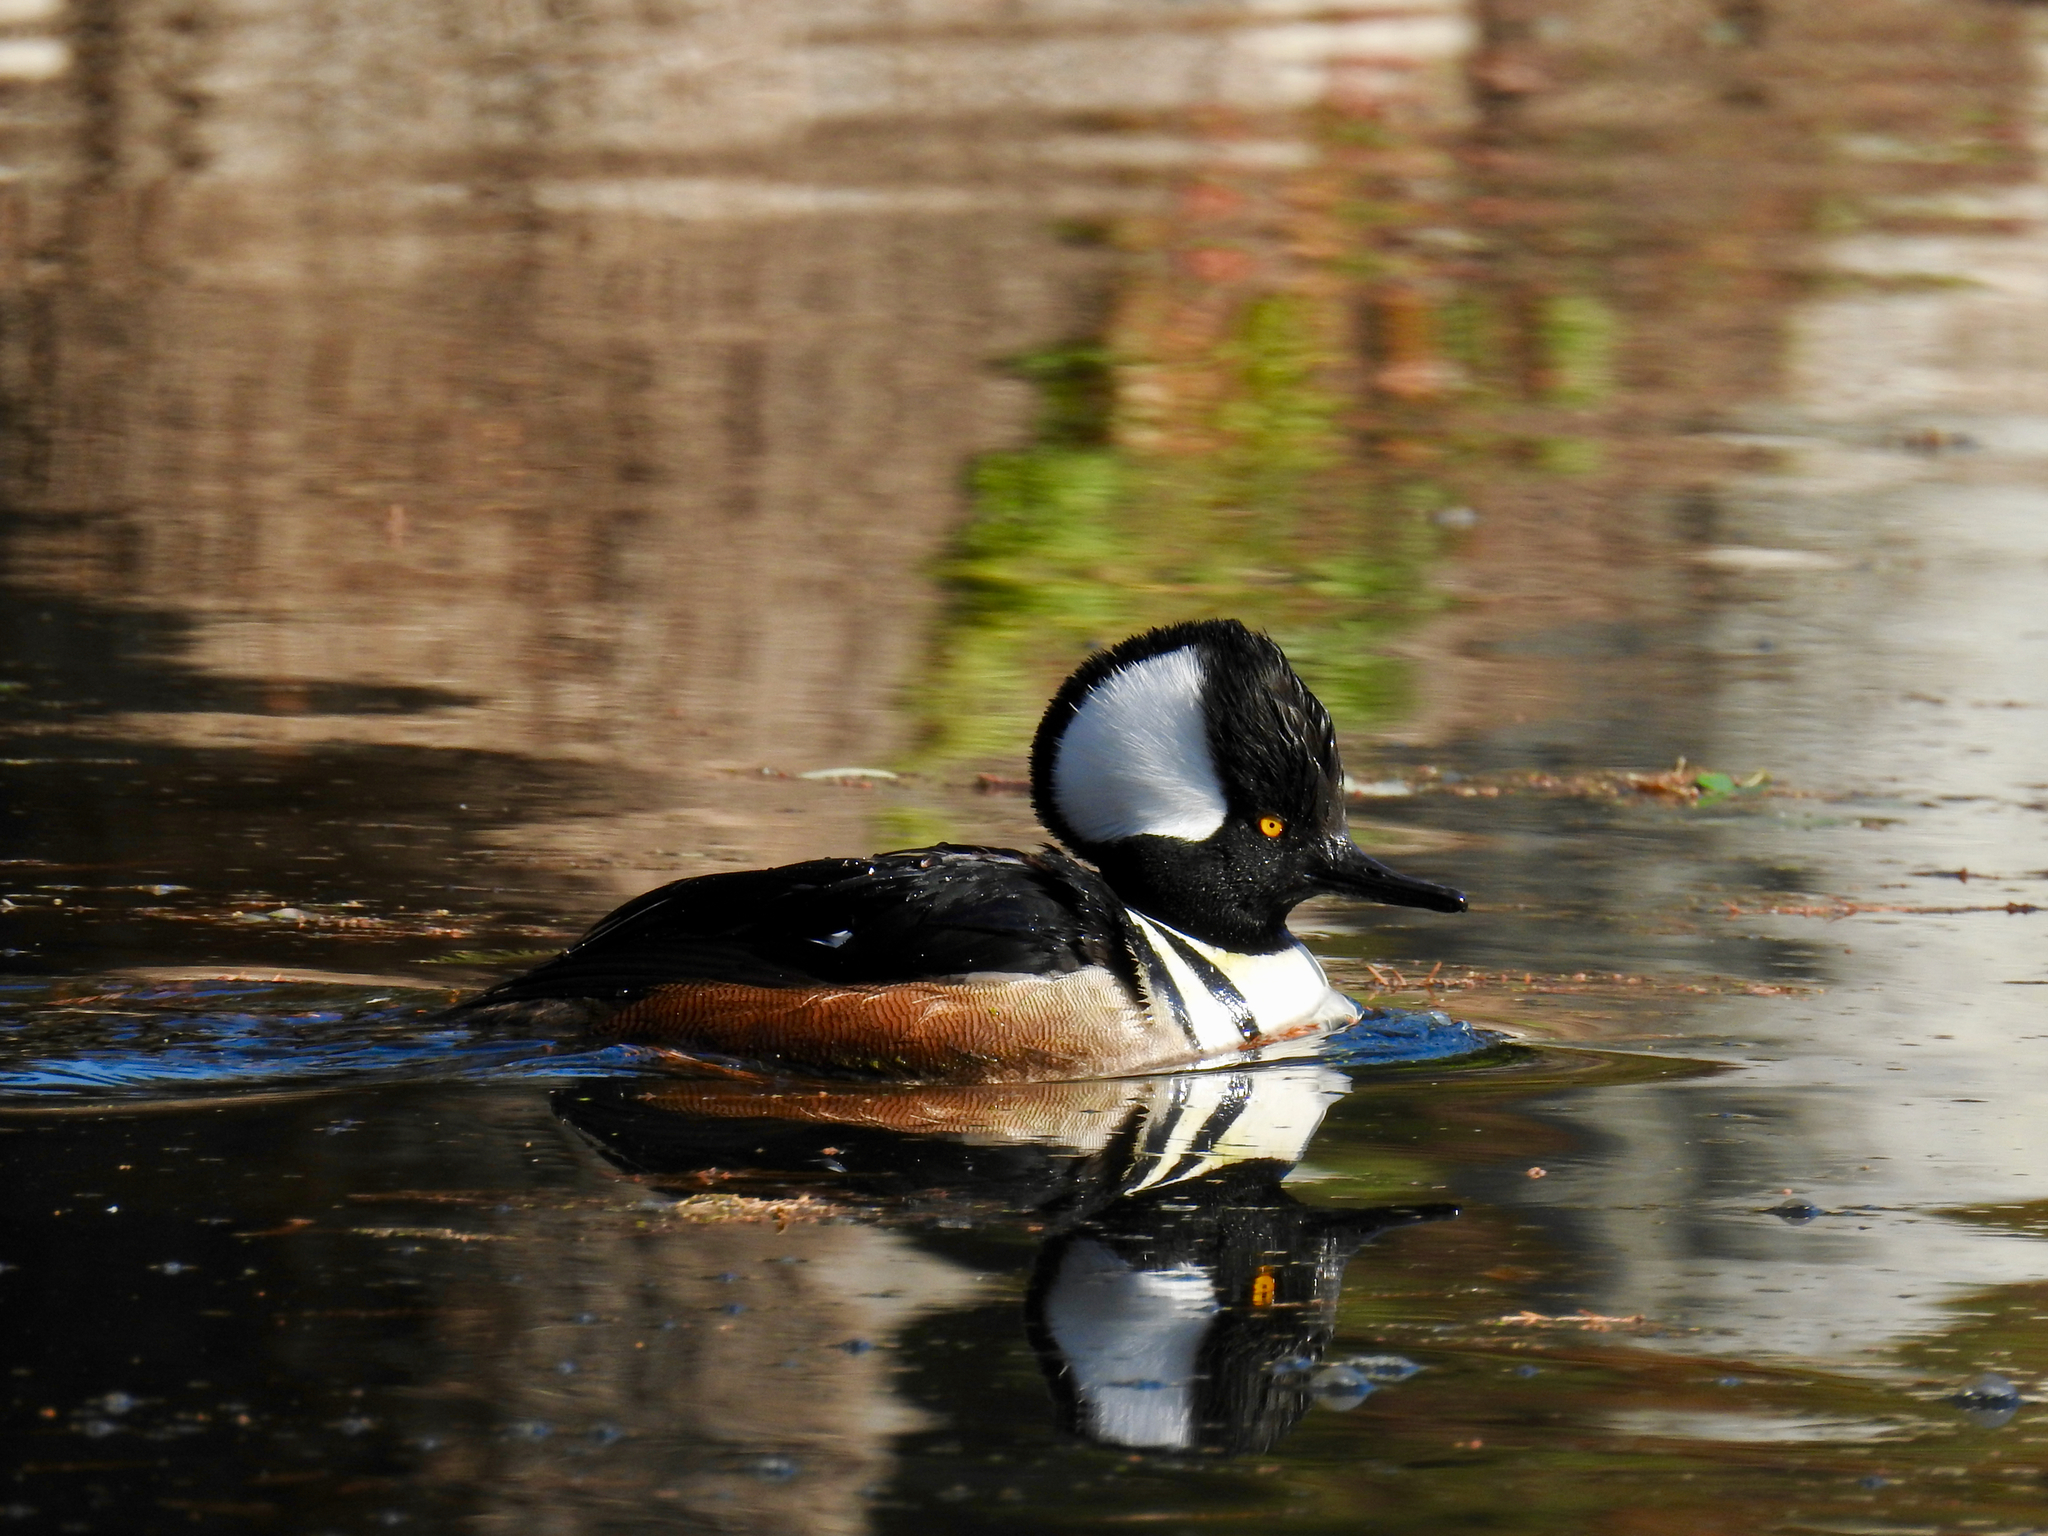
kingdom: Animalia
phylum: Chordata
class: Aves
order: Anseriformes
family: Anatidae
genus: Lophodytes
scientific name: Lophodytes cucullatus
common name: Hooded merganser
